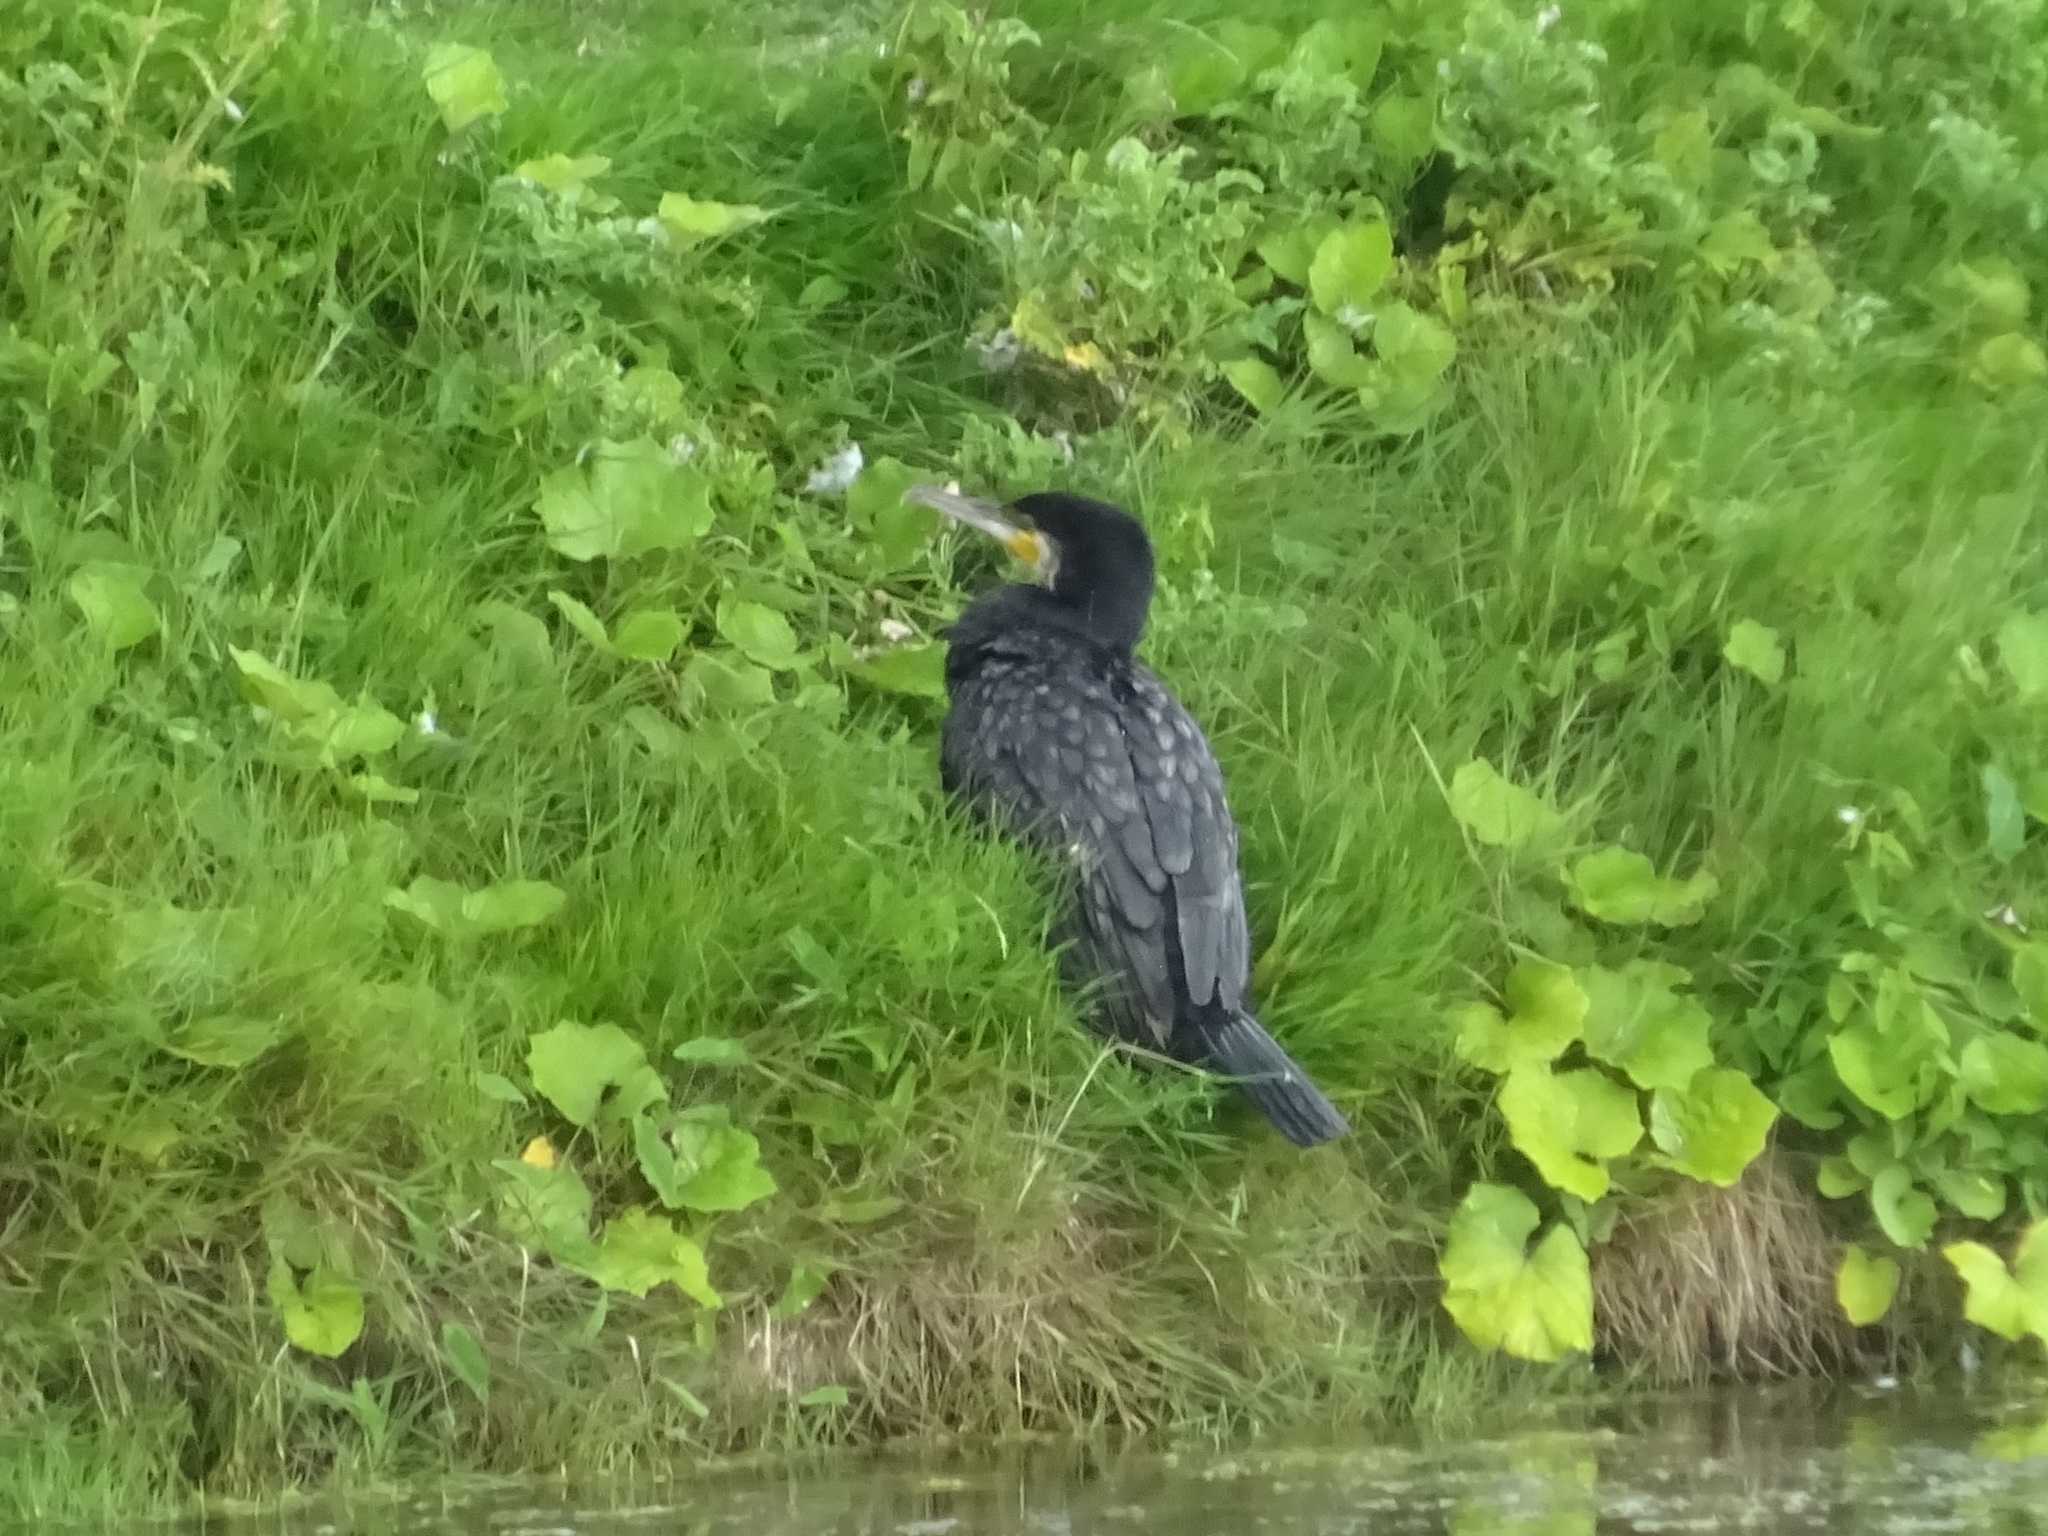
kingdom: Animalia
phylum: Chordata
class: Aves
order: Suliformes
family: Phalacrocoracidae
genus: Phalacrocorax
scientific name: Phalacrocorax carbo
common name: Great cormorant
